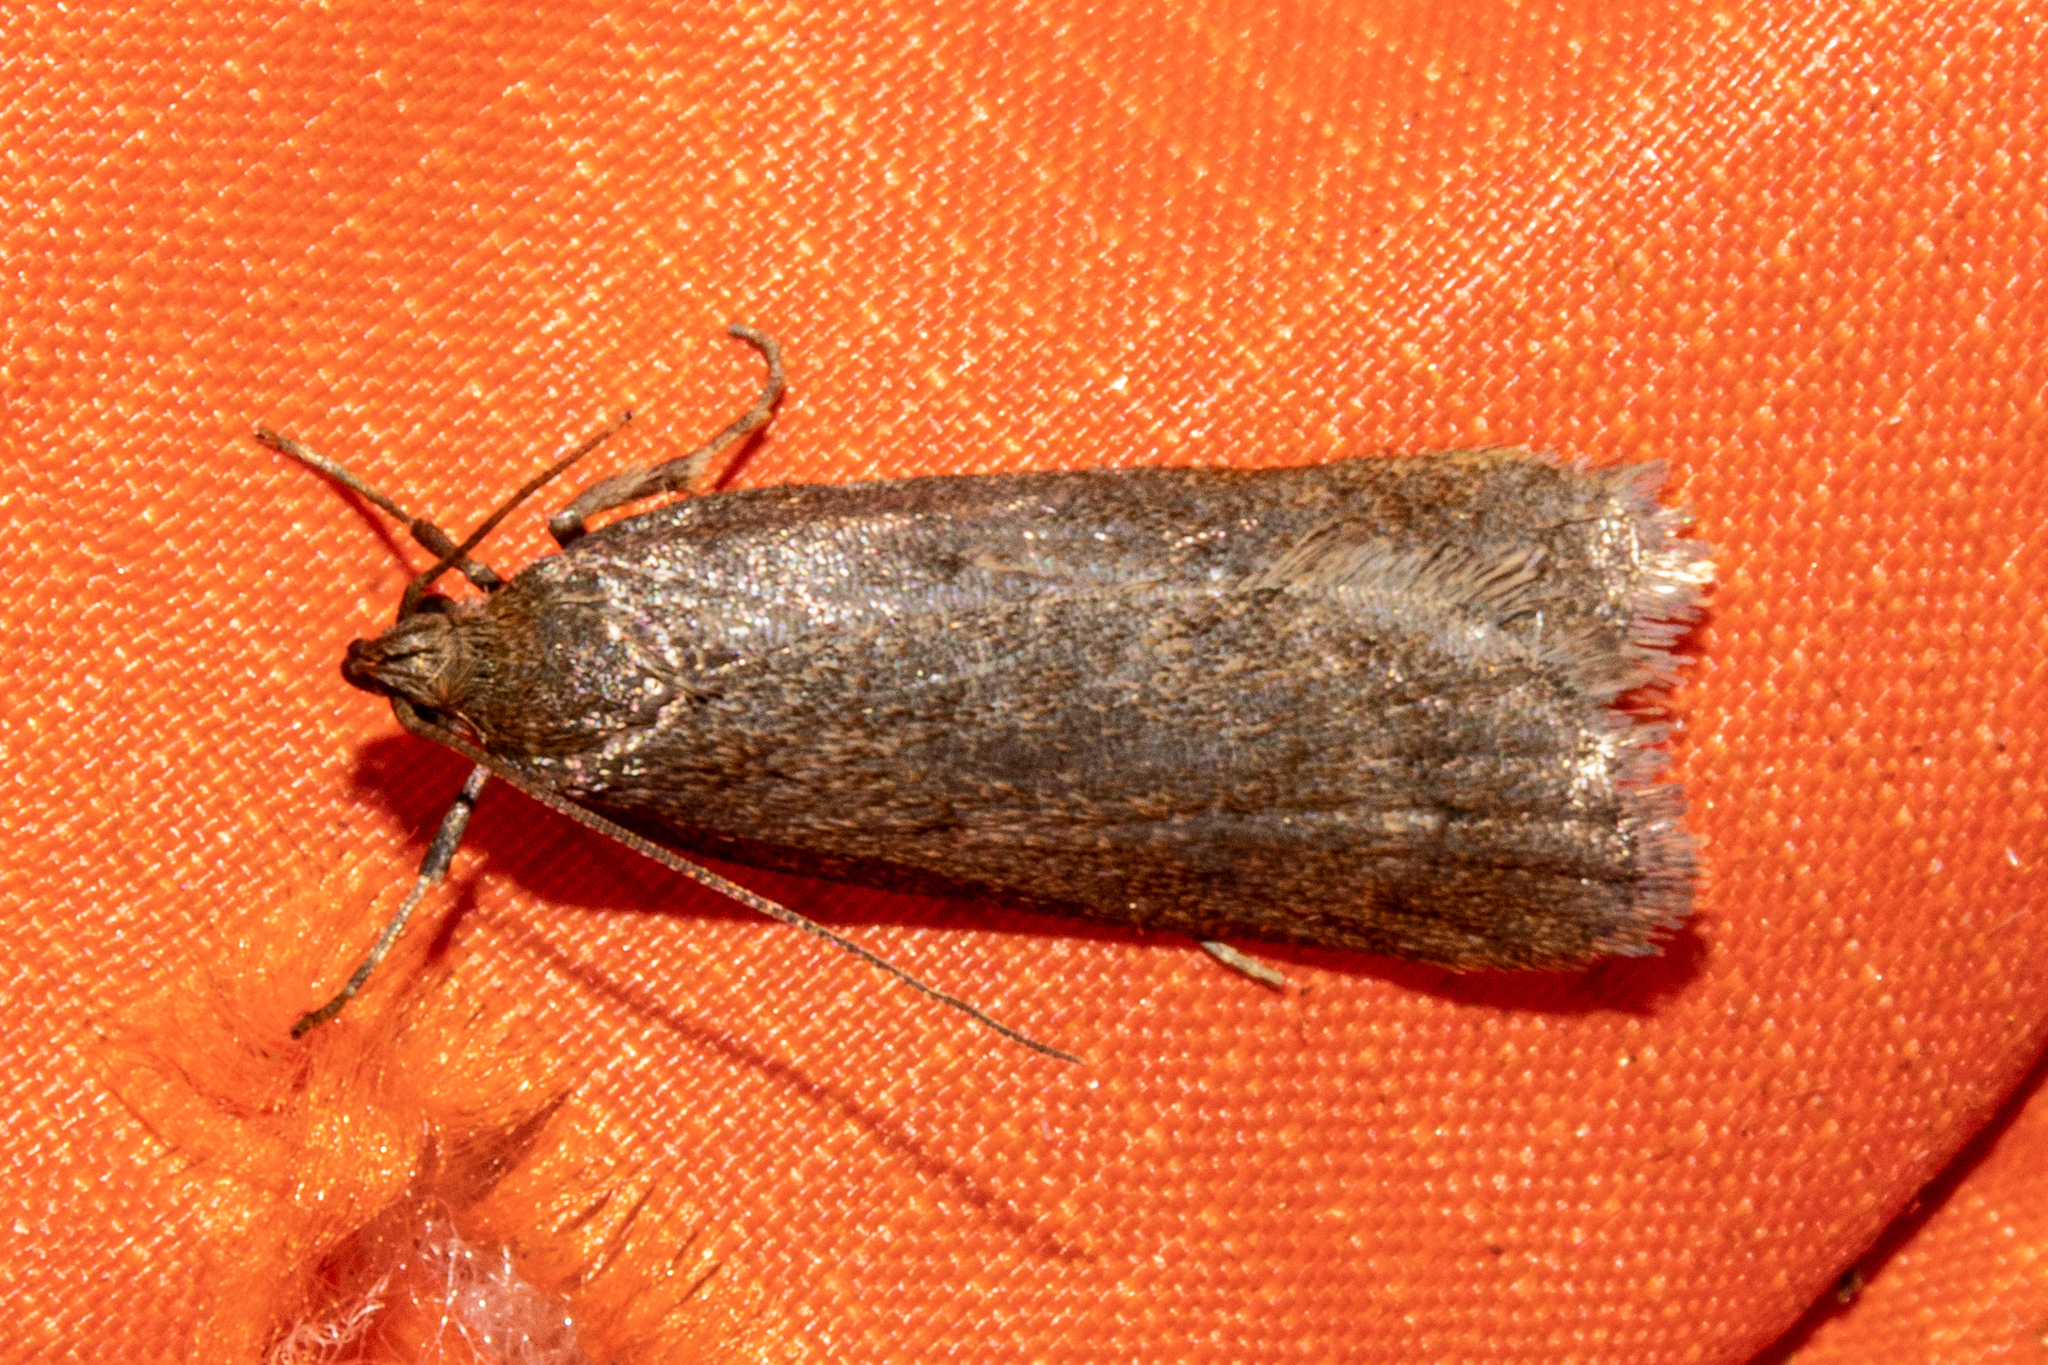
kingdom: Animalia
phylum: Arthropoda
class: Insecta
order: Lepidoptera
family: Depressariidae
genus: Phaeosaces
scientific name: Phaeosaces apocrypta
